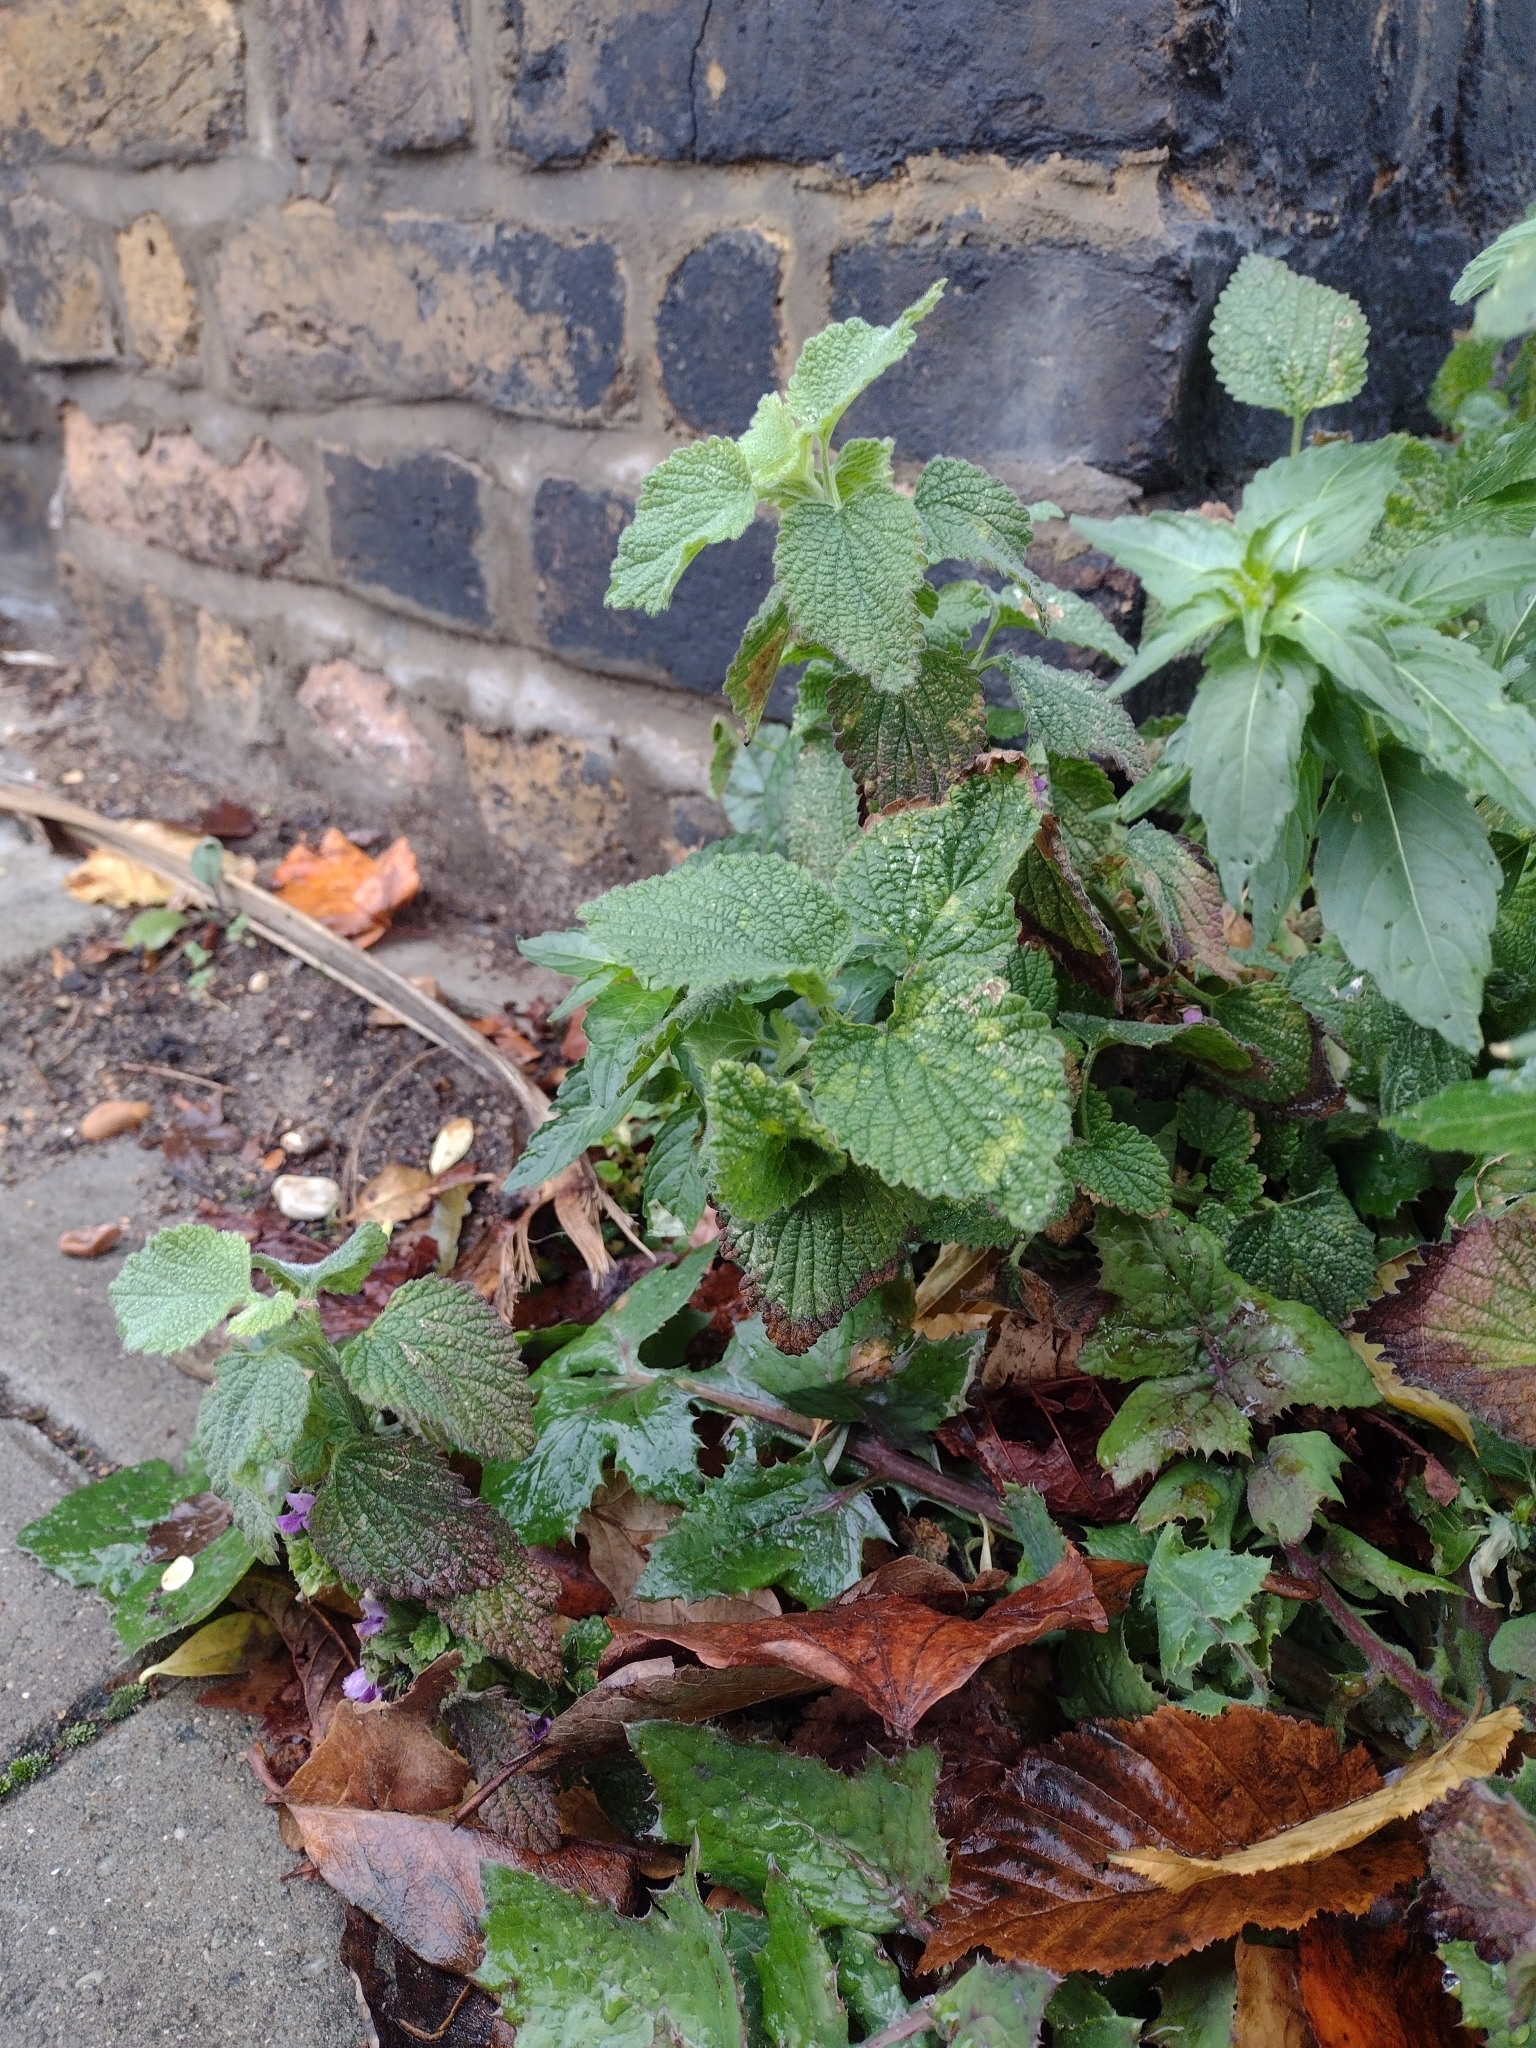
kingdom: Plantae
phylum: Tracheophyta
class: Magnoliopsida
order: Lamiales
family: Lamiaceae
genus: Ballota
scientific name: Ballota nigra
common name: Black horehound
